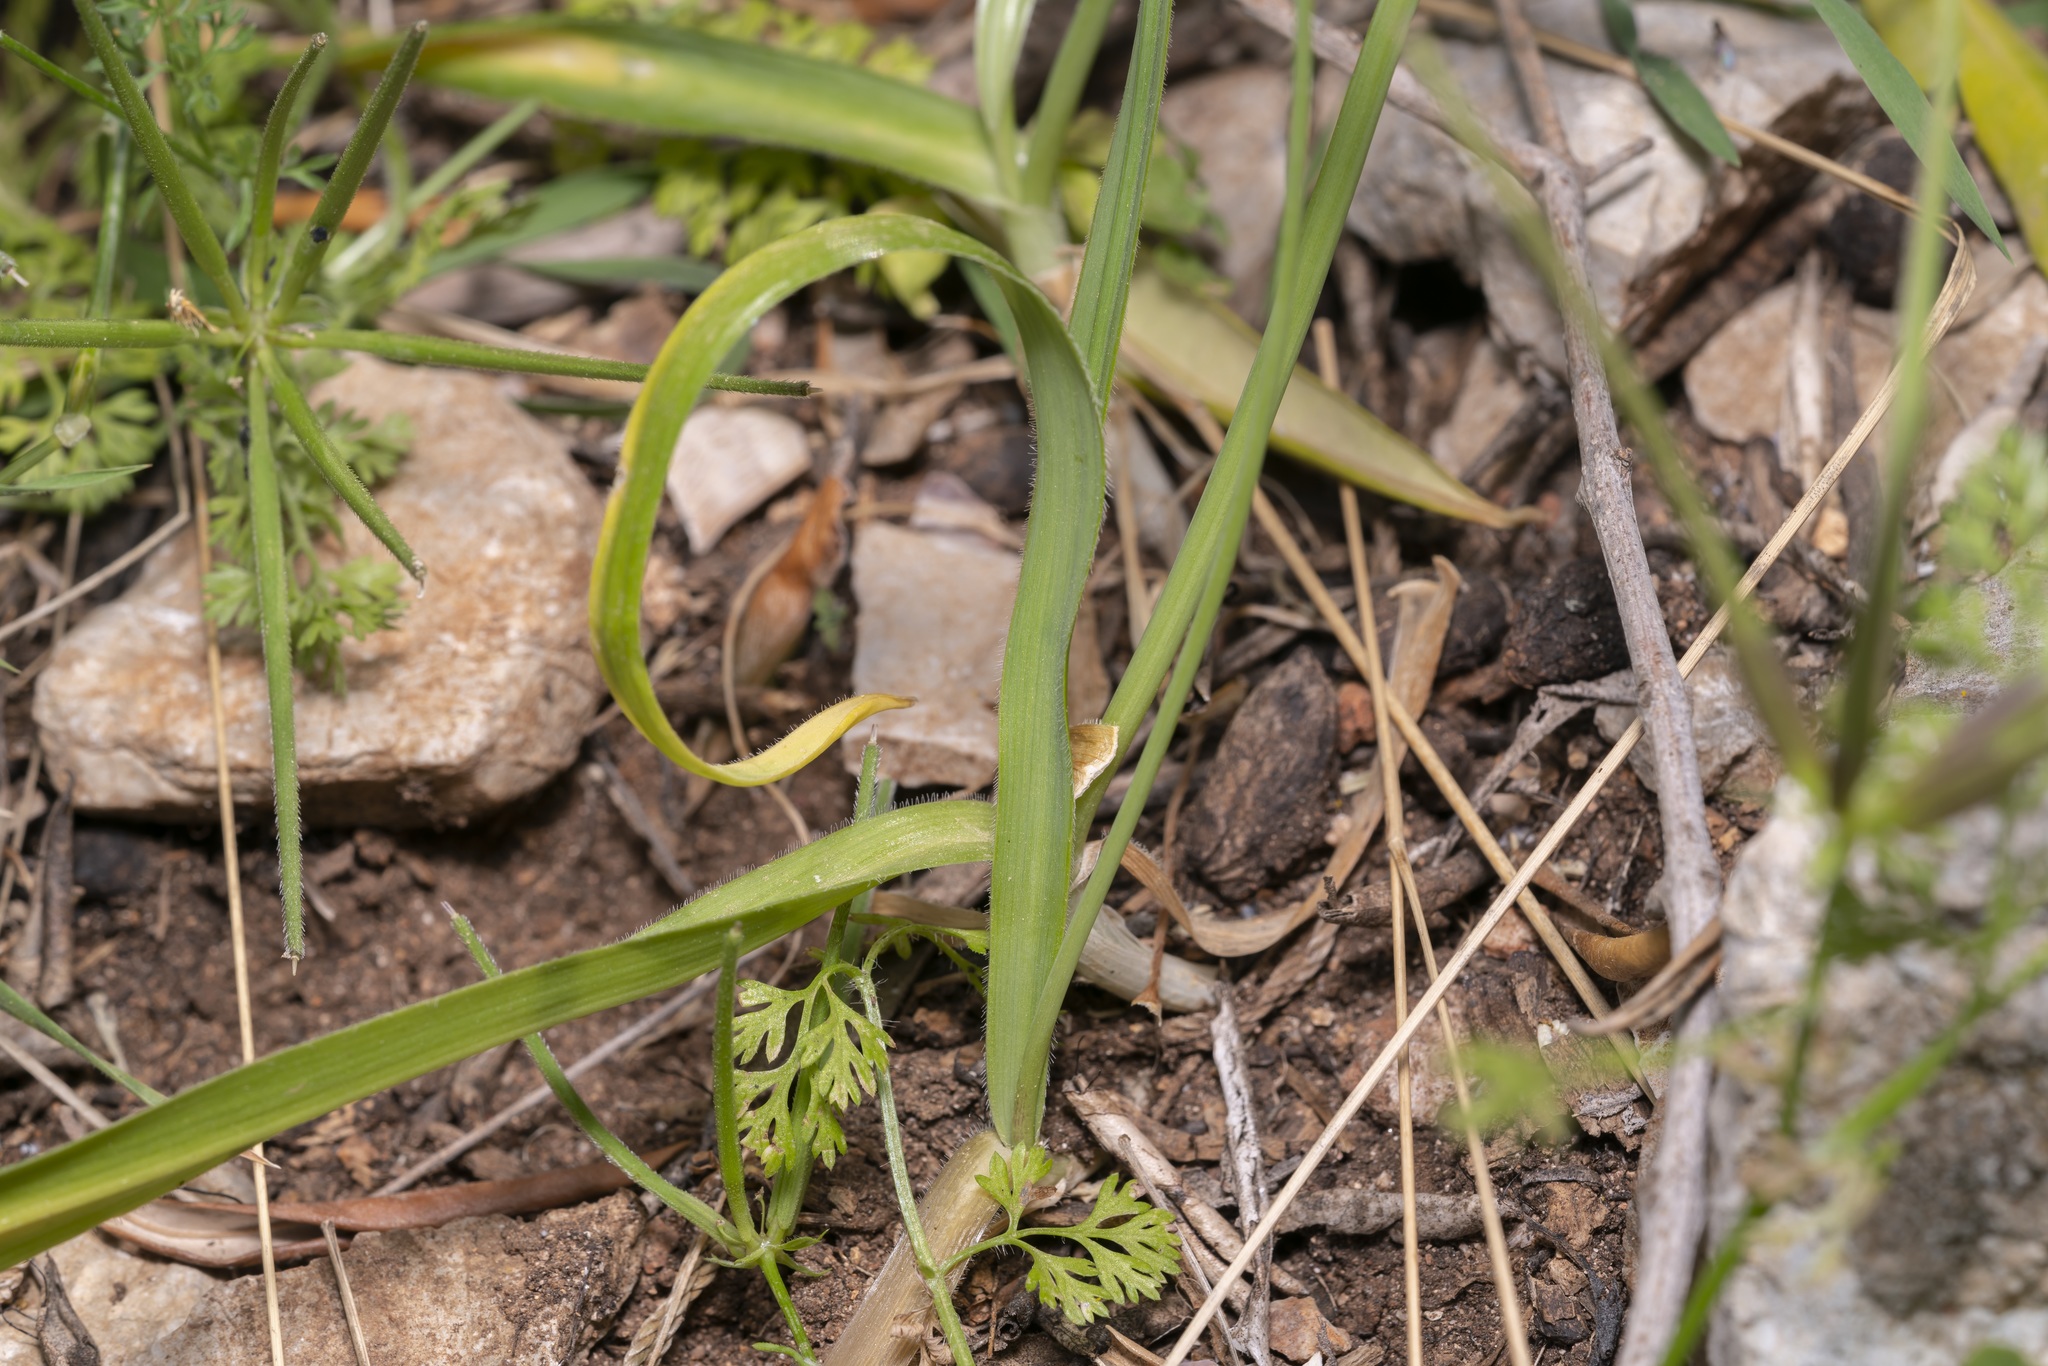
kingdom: Plantae
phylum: Tracheophyta
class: Liliopsida
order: Asparagales
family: Amaryllidaceae
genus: Allium
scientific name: Allium subhirsutum
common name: Hairy garlic
